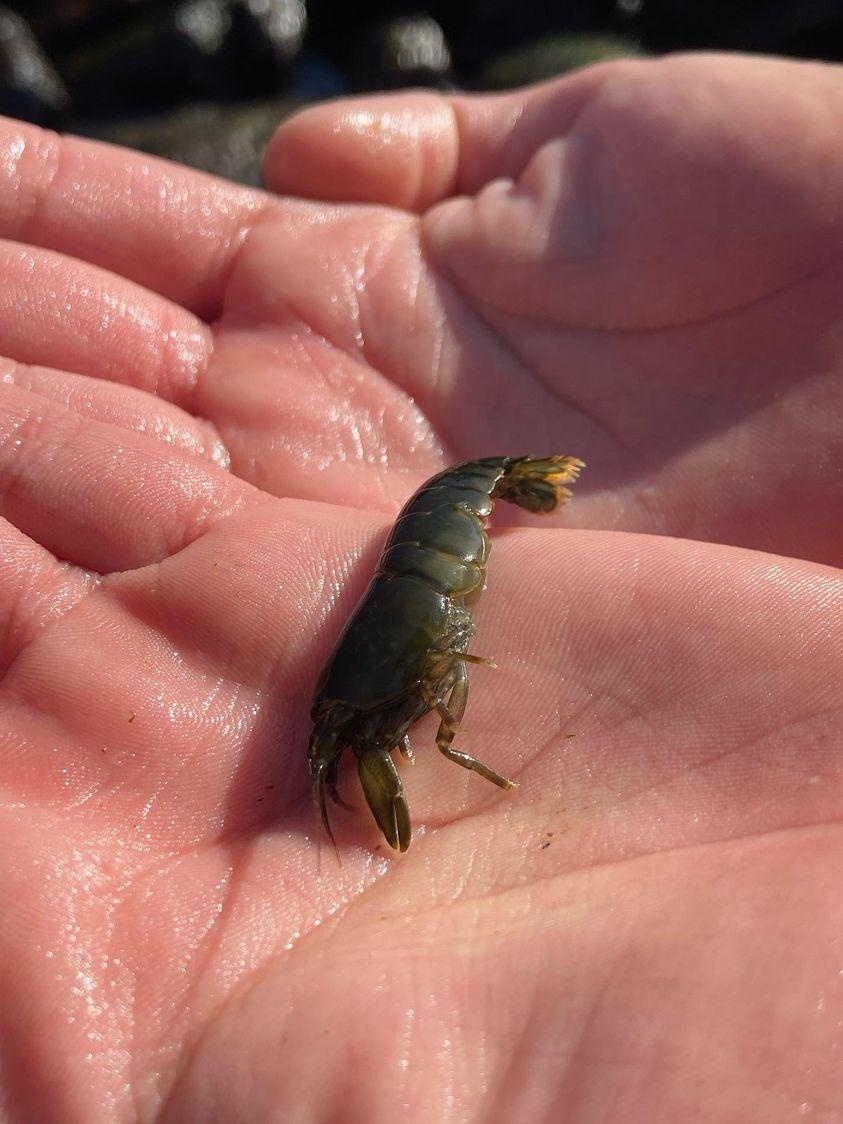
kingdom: Animalia
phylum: Arthropoda
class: Malacostraca
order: Decapoda
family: Alpheidae
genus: Betaeus
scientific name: Betaeus truncatus
